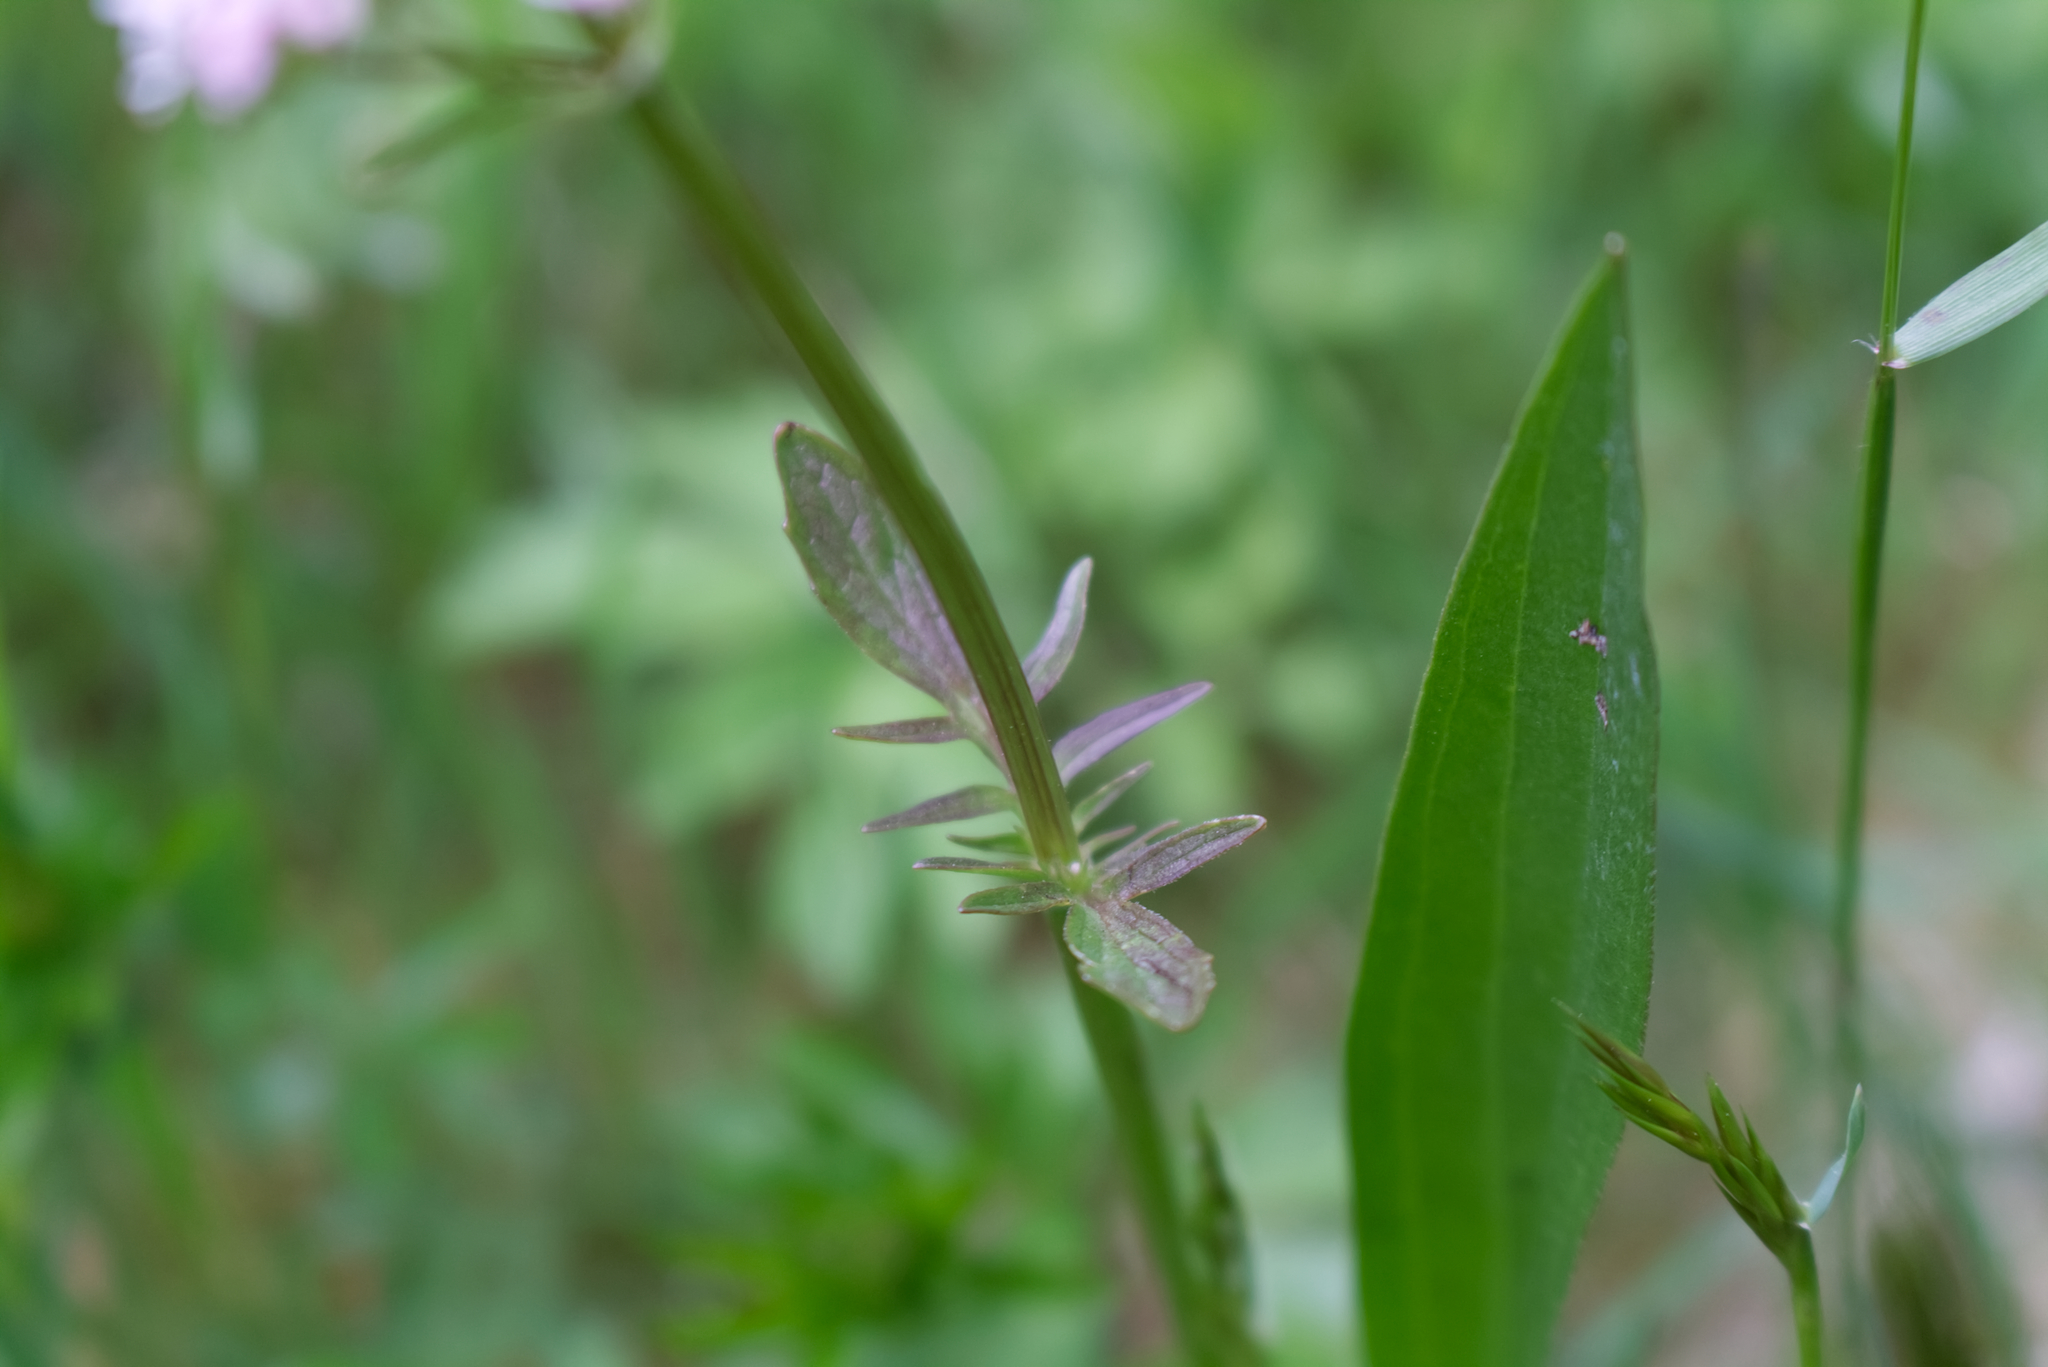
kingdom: Plantae
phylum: Tracheophyta
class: Magnoliopsida
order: Dipsacales
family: Caprifoliaceae
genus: Valeriana
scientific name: Valeriana dioica
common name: Marsh valerian
